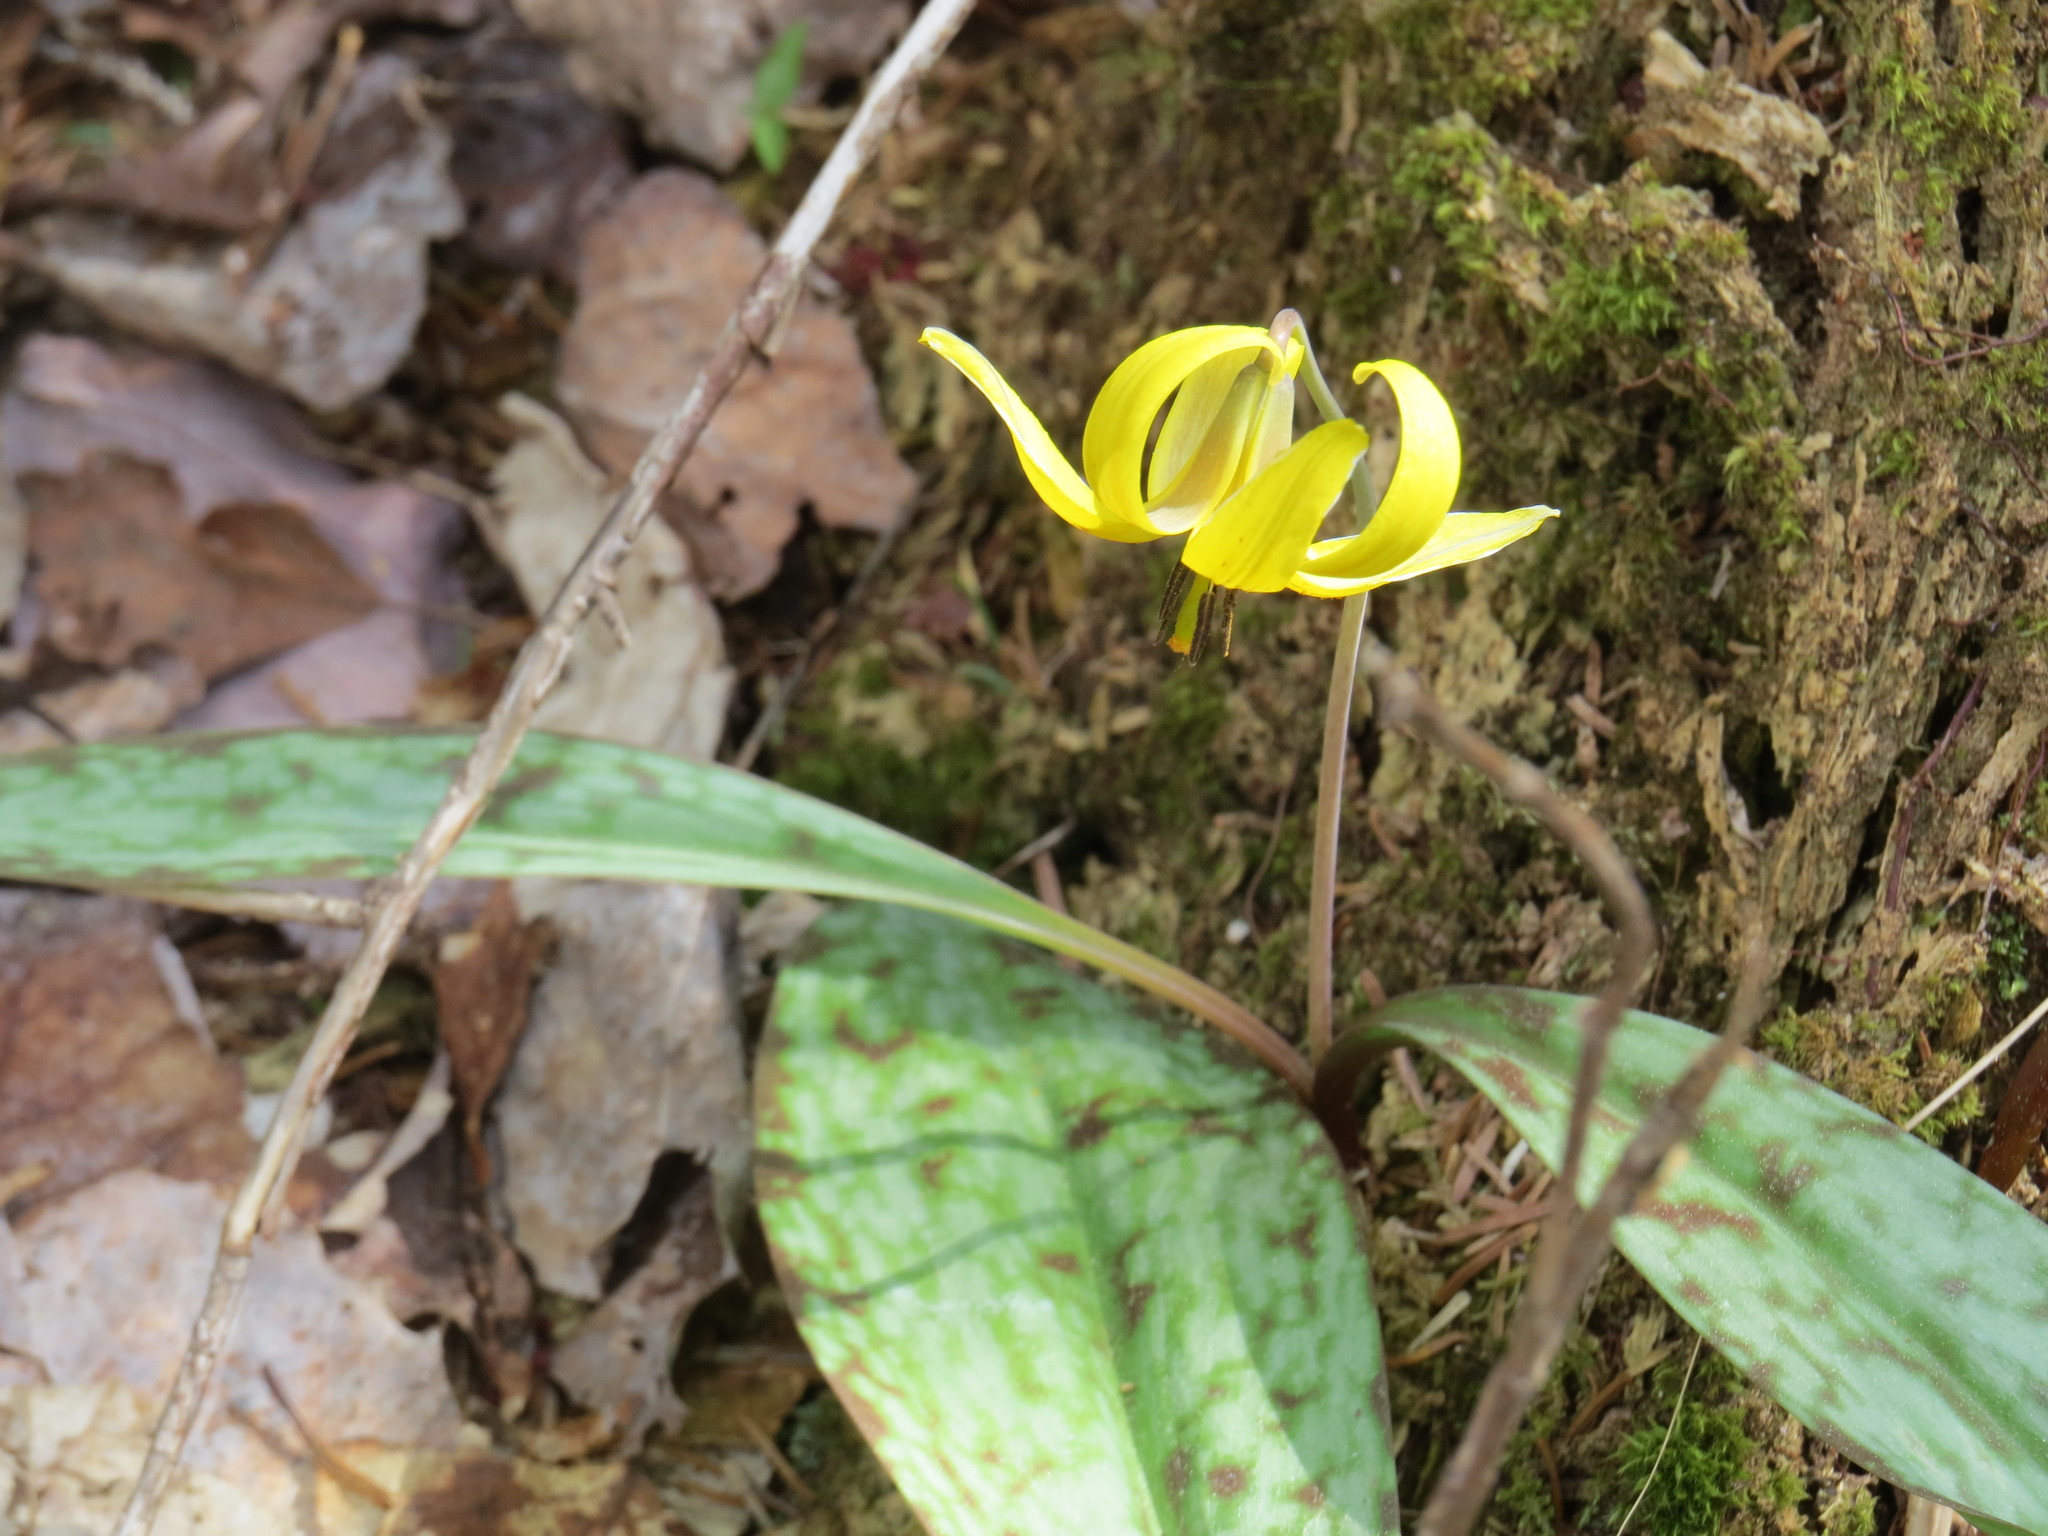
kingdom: Plantae
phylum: Tracheophyta
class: Liliopsida
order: Liliales
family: Liliaceae
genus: Erythronium
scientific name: Erythronium americanum
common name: Yellow adder's-tongue
